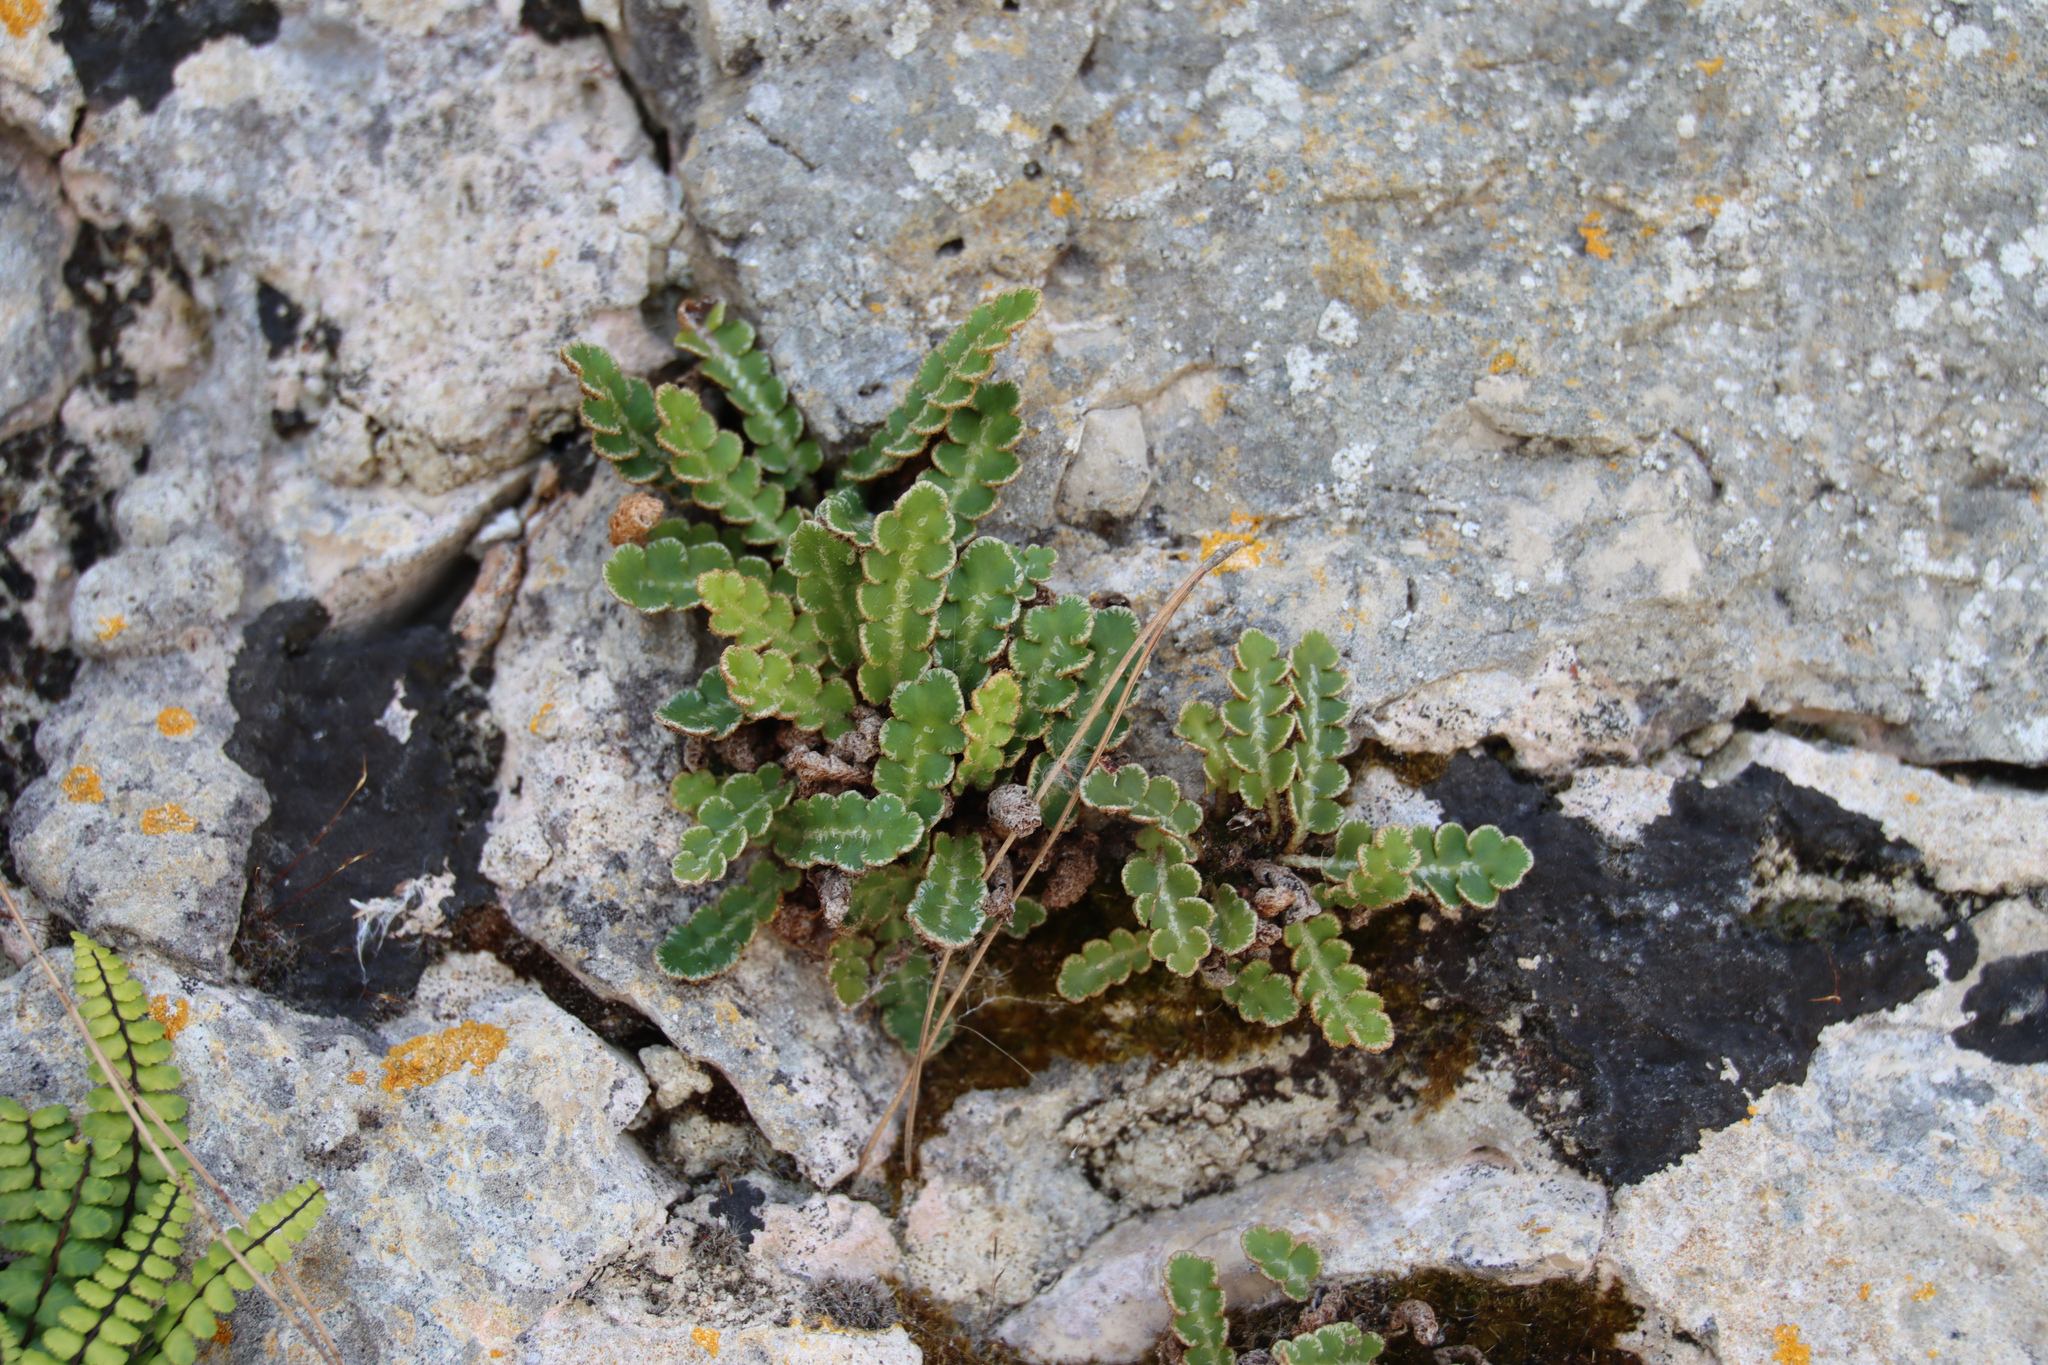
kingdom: Plantae
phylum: Tracheophyta
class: Polypodiopsida
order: Polypodiales
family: Aspleniaceae
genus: Asplenium
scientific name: Asplenium ceterach
